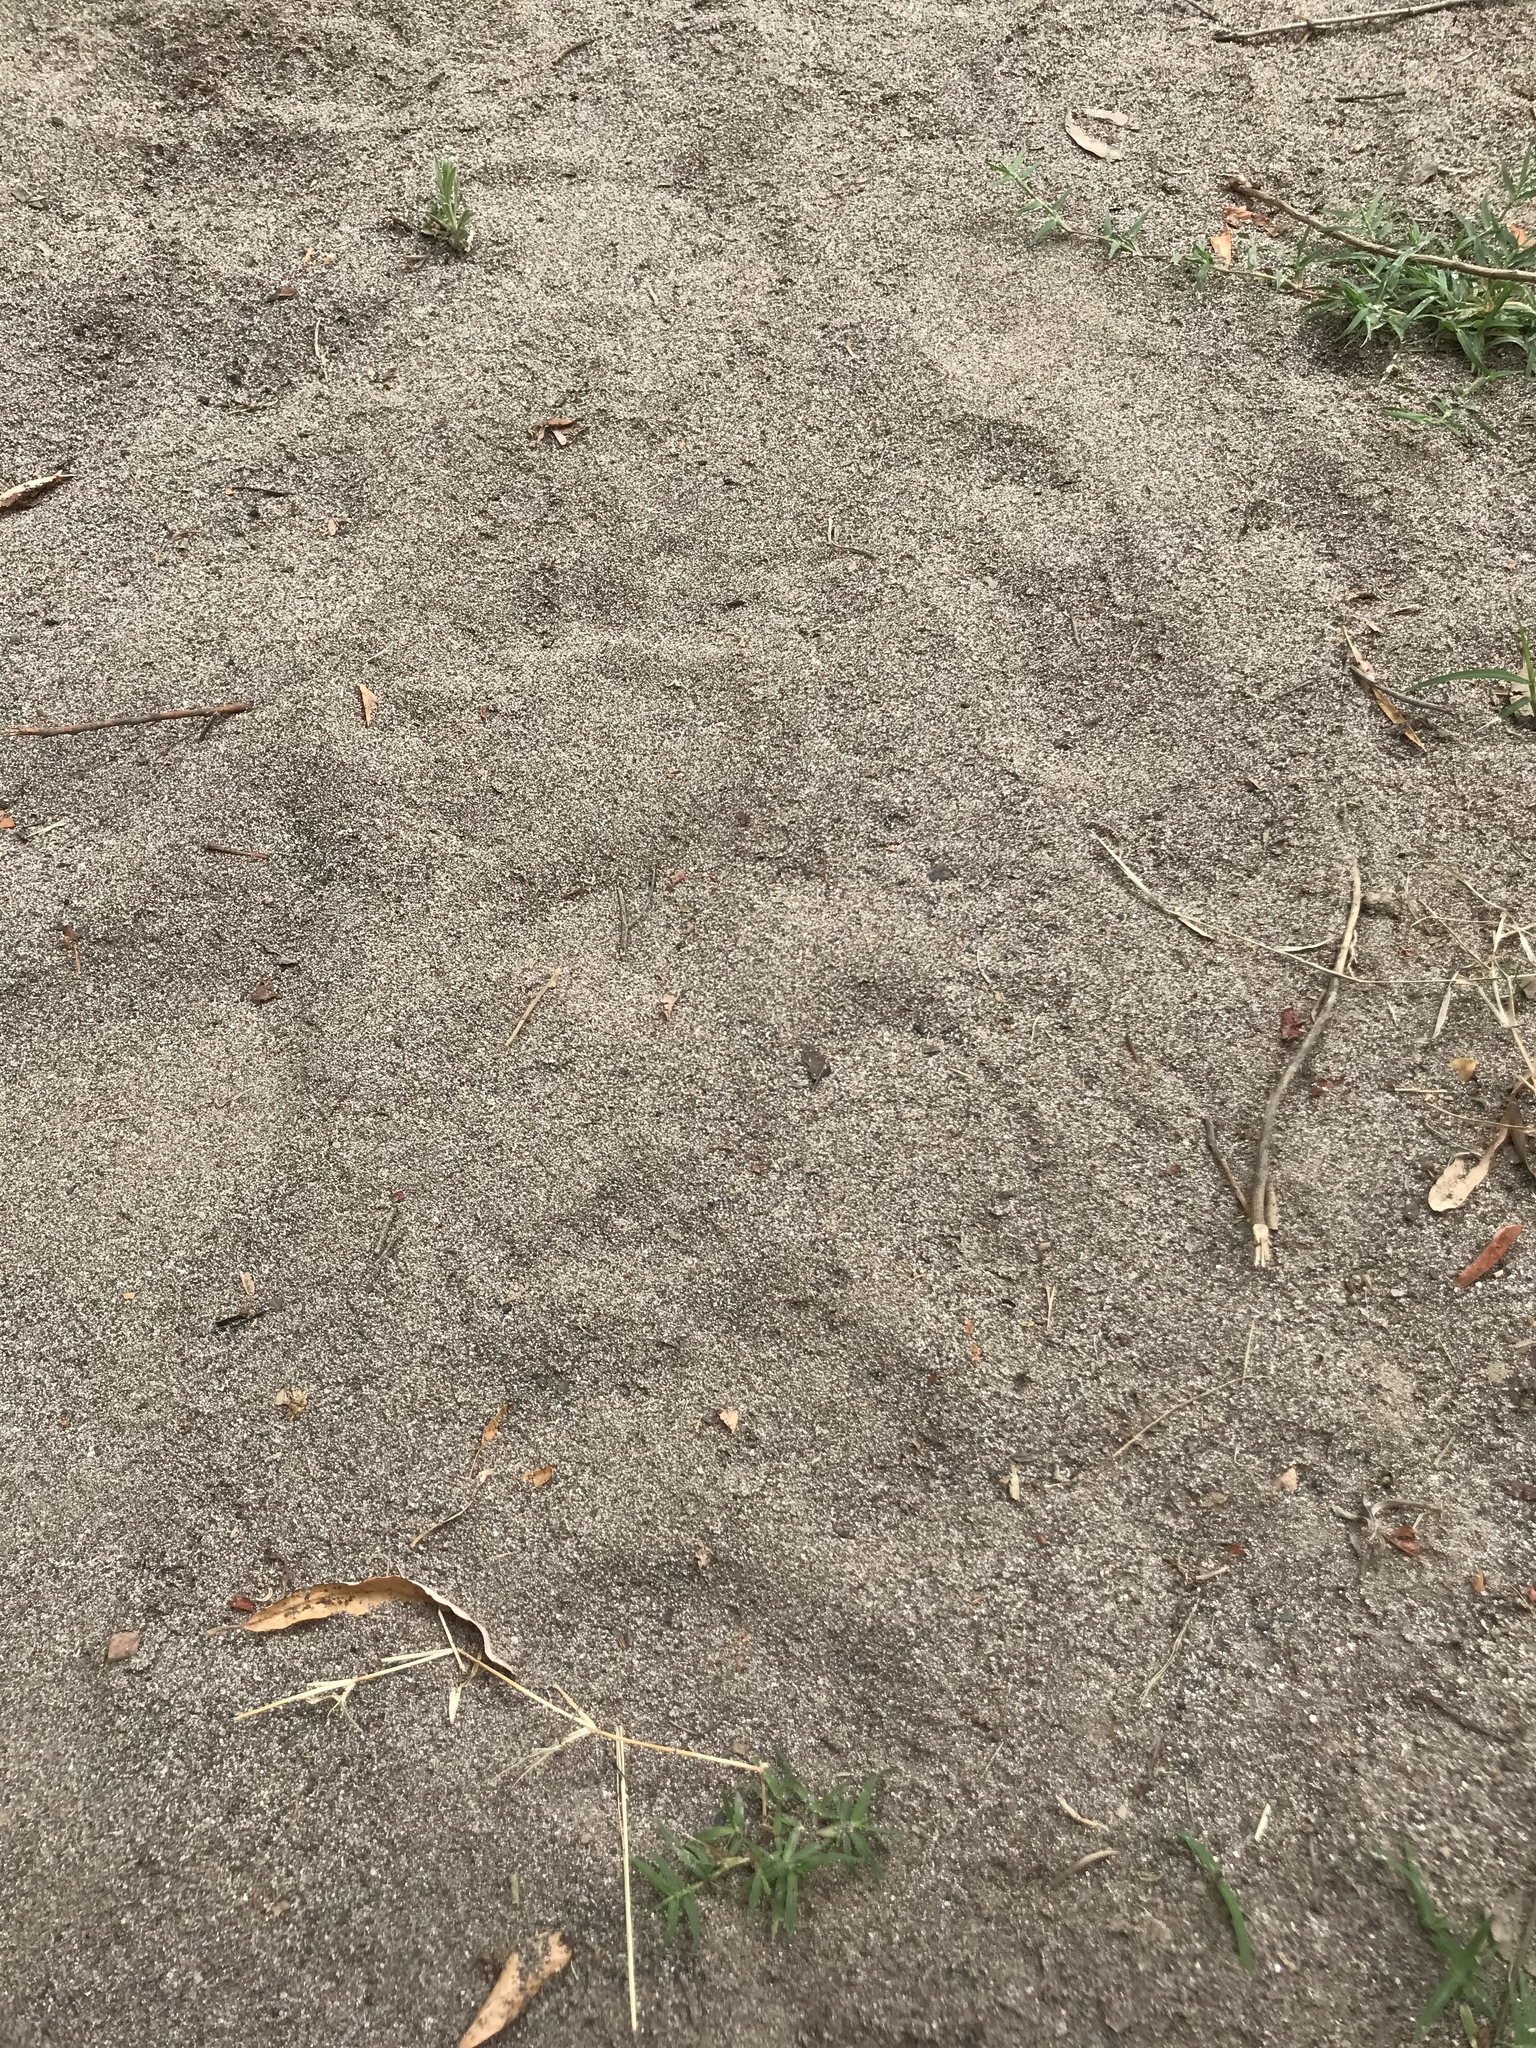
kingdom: Animalia
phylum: Chordata
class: Mammalia
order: Carnivora
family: Ursidae
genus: Ursus
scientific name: Ursus americanus
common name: American black bear
